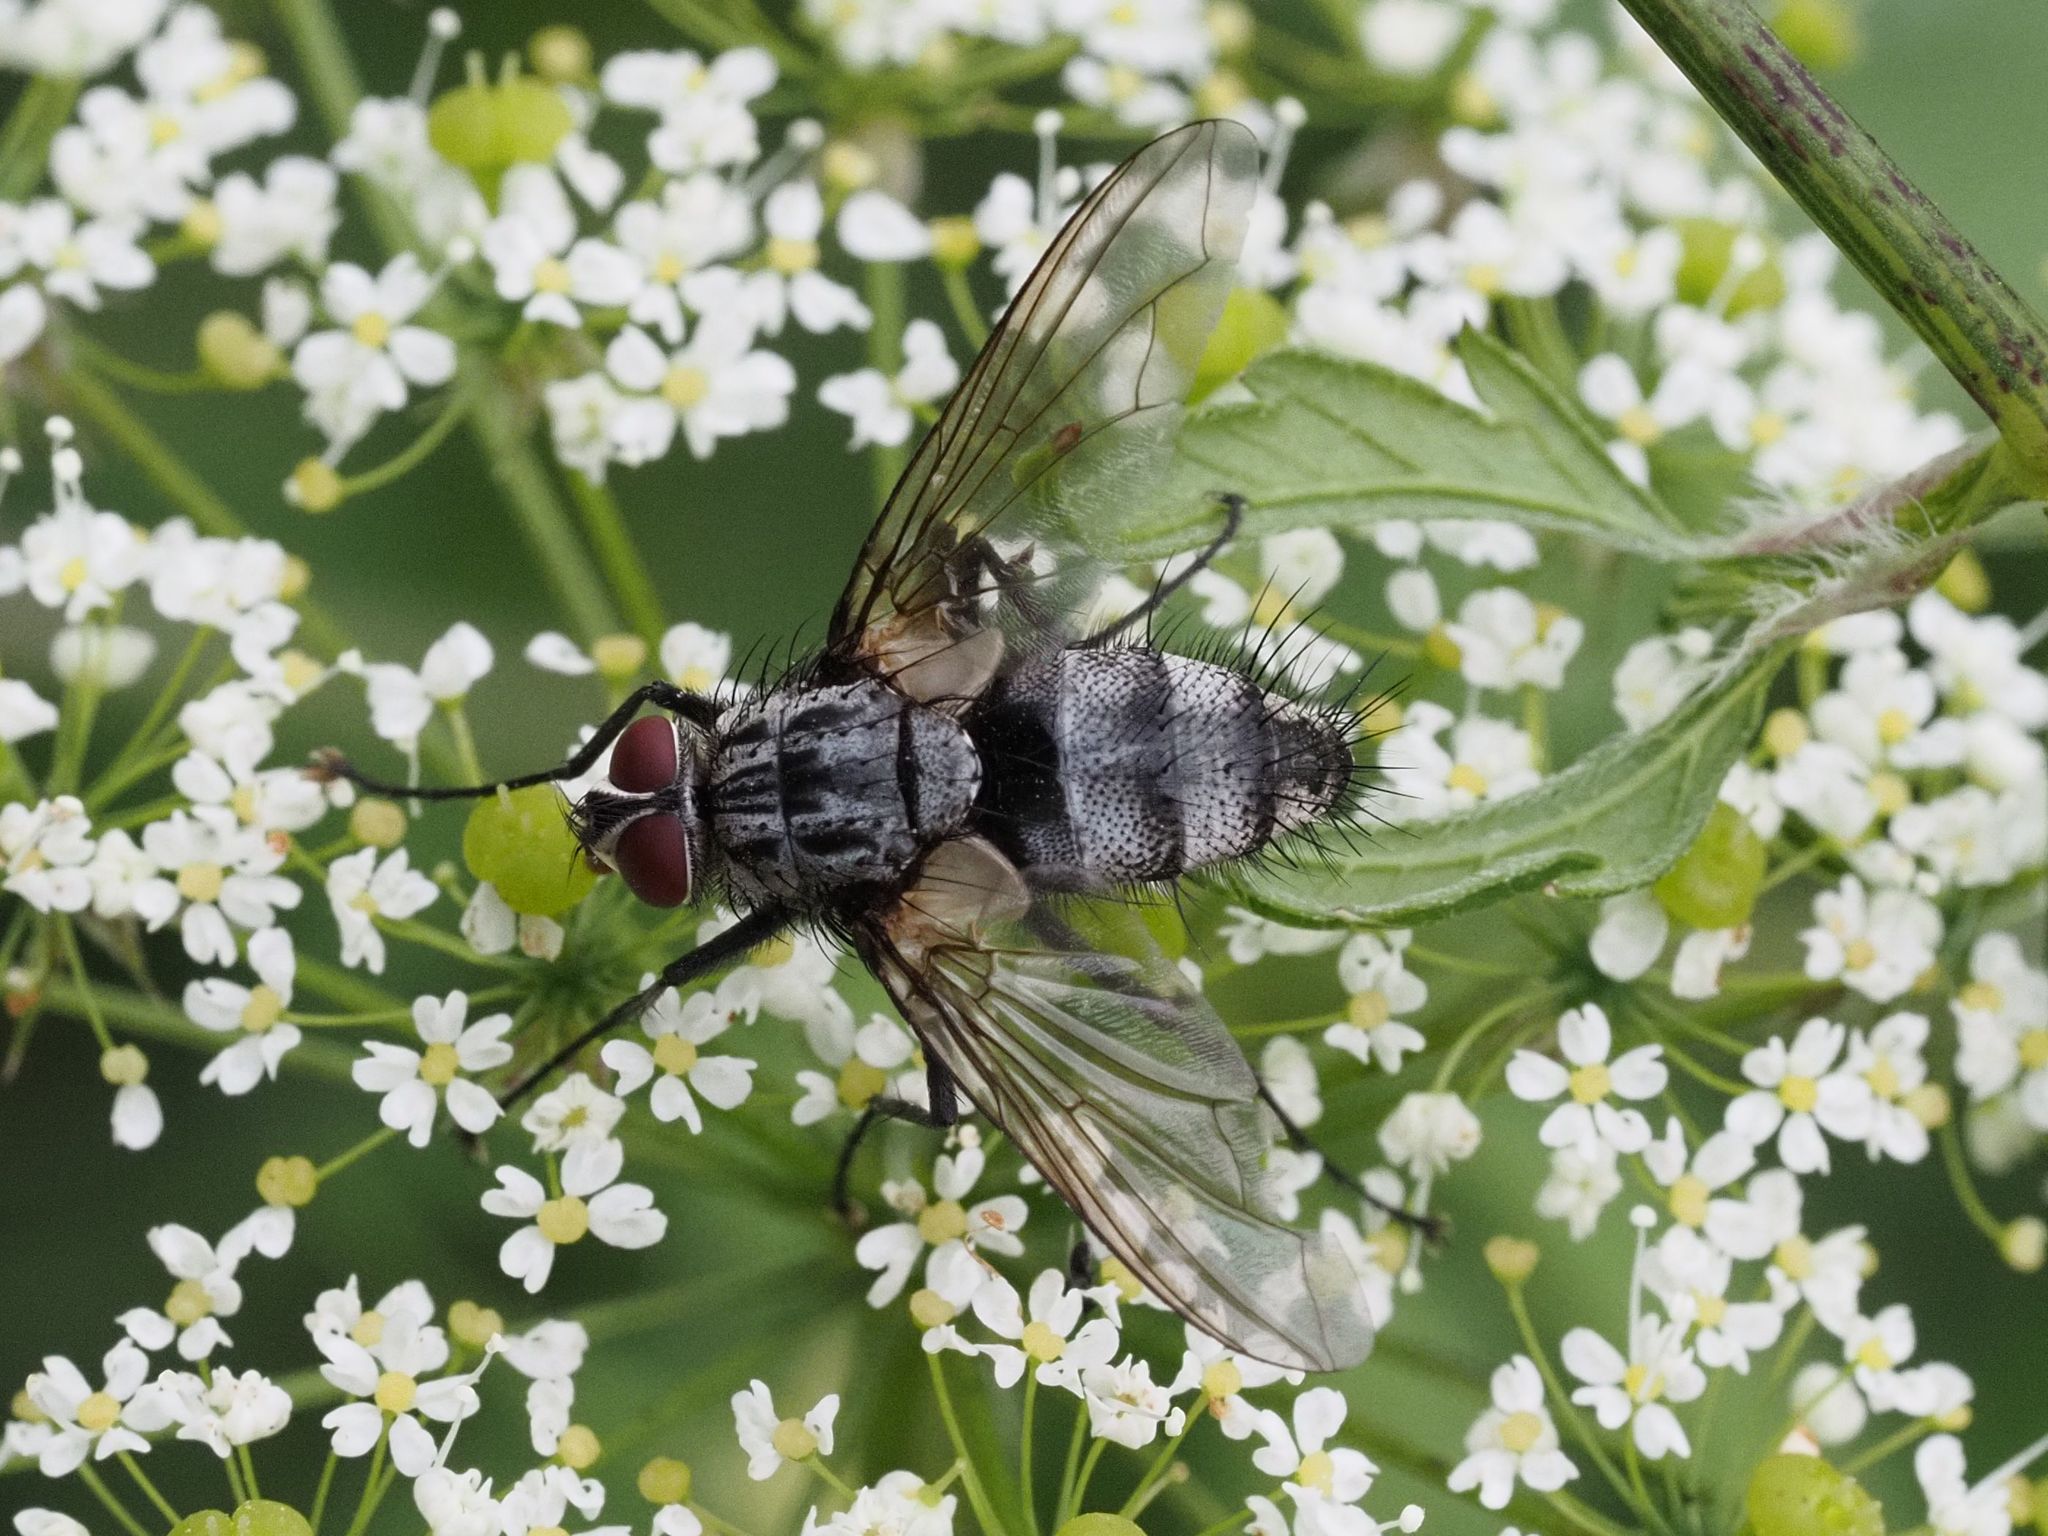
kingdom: Animalia
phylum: Arthropoda
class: Insecta
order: Diptera
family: Tachinidae
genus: Dinera
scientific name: Dinera ferina
